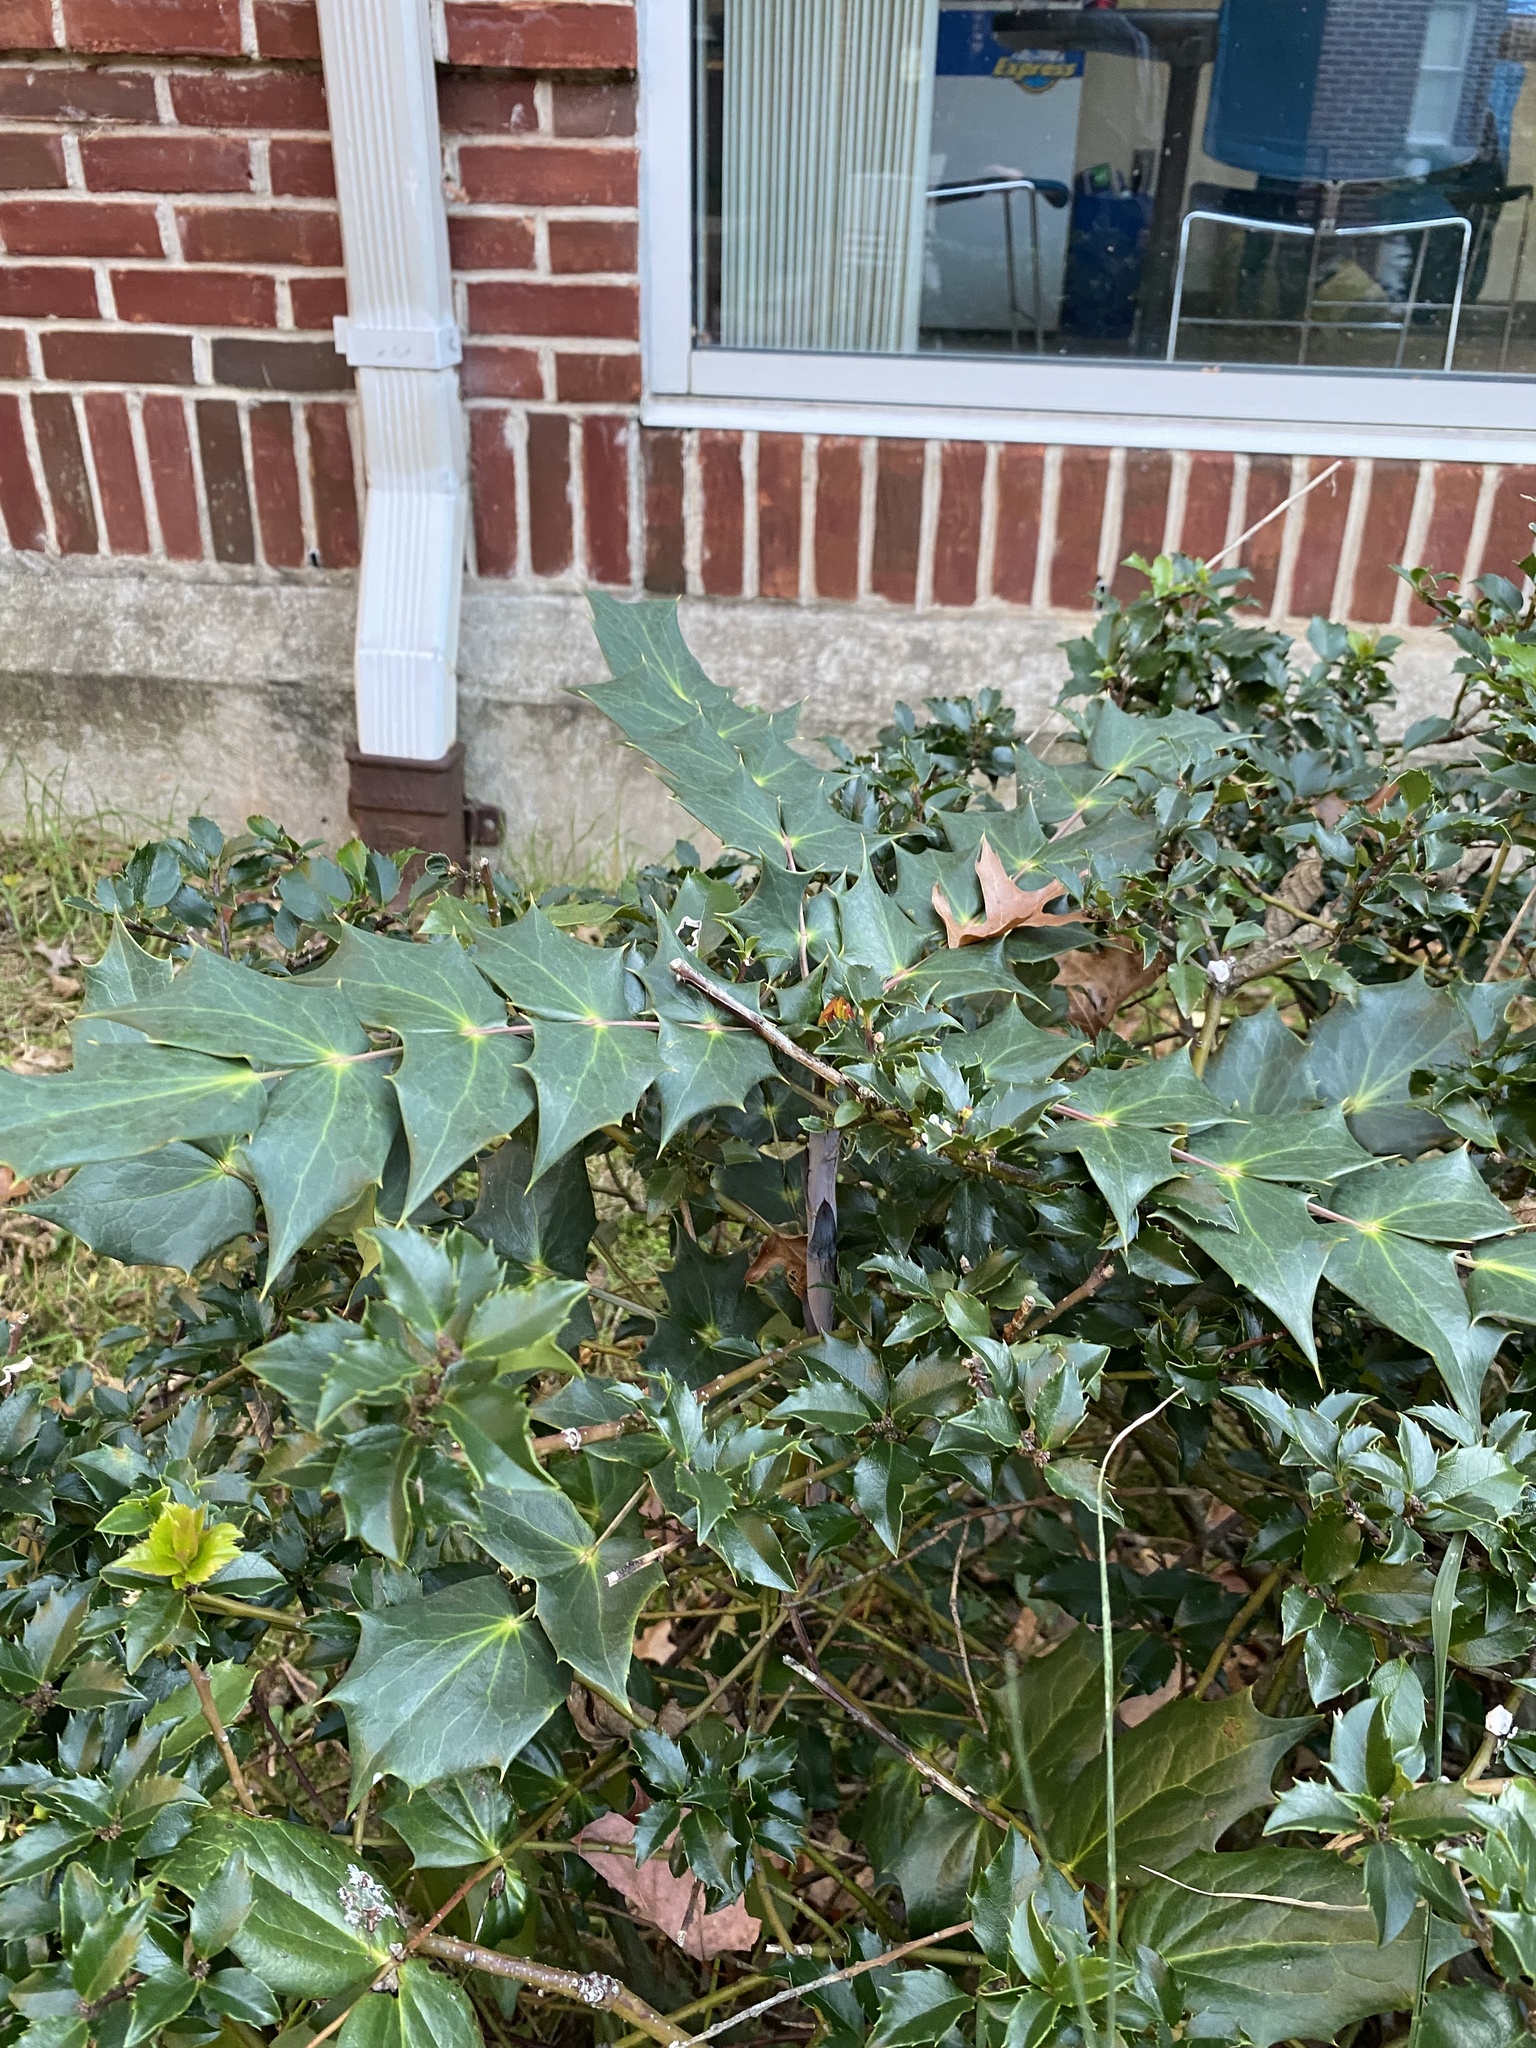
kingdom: Plantae
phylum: Tracheophyta
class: Magnoliopsida
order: Ranunculales
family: Berberidaceae
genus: Mahonia
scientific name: Mahonia bealei
